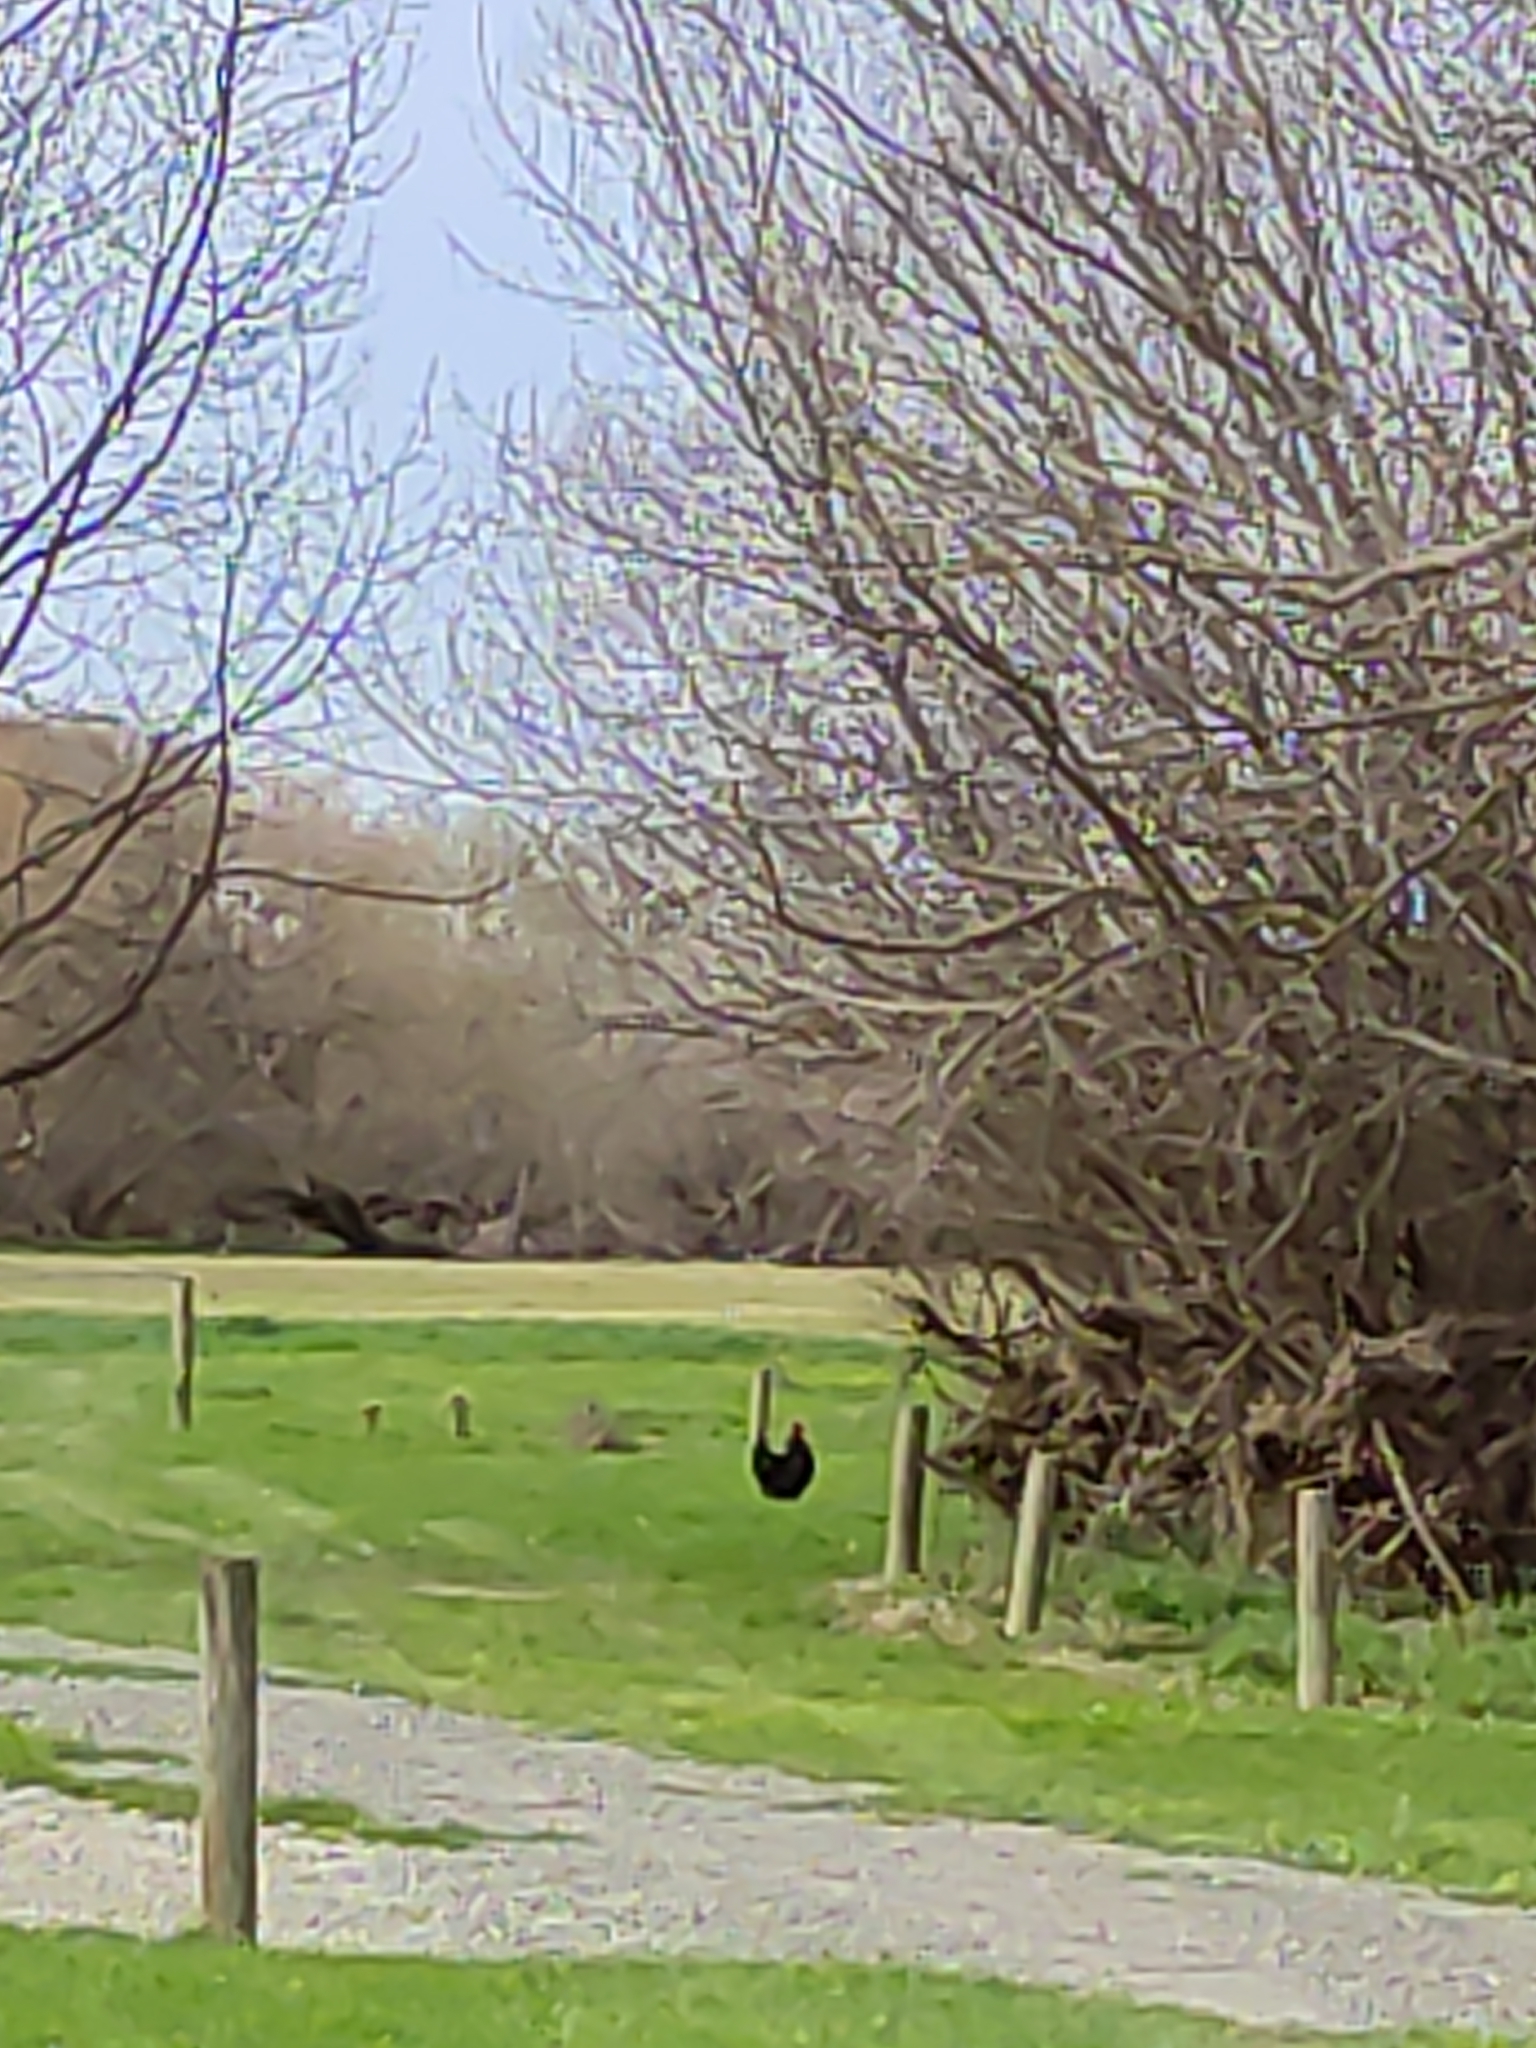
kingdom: Animalia
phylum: Chordata
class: Aves
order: Galliformes
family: Phasianidae
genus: Gallus
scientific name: Gallus gallus
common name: Red junglefowl
